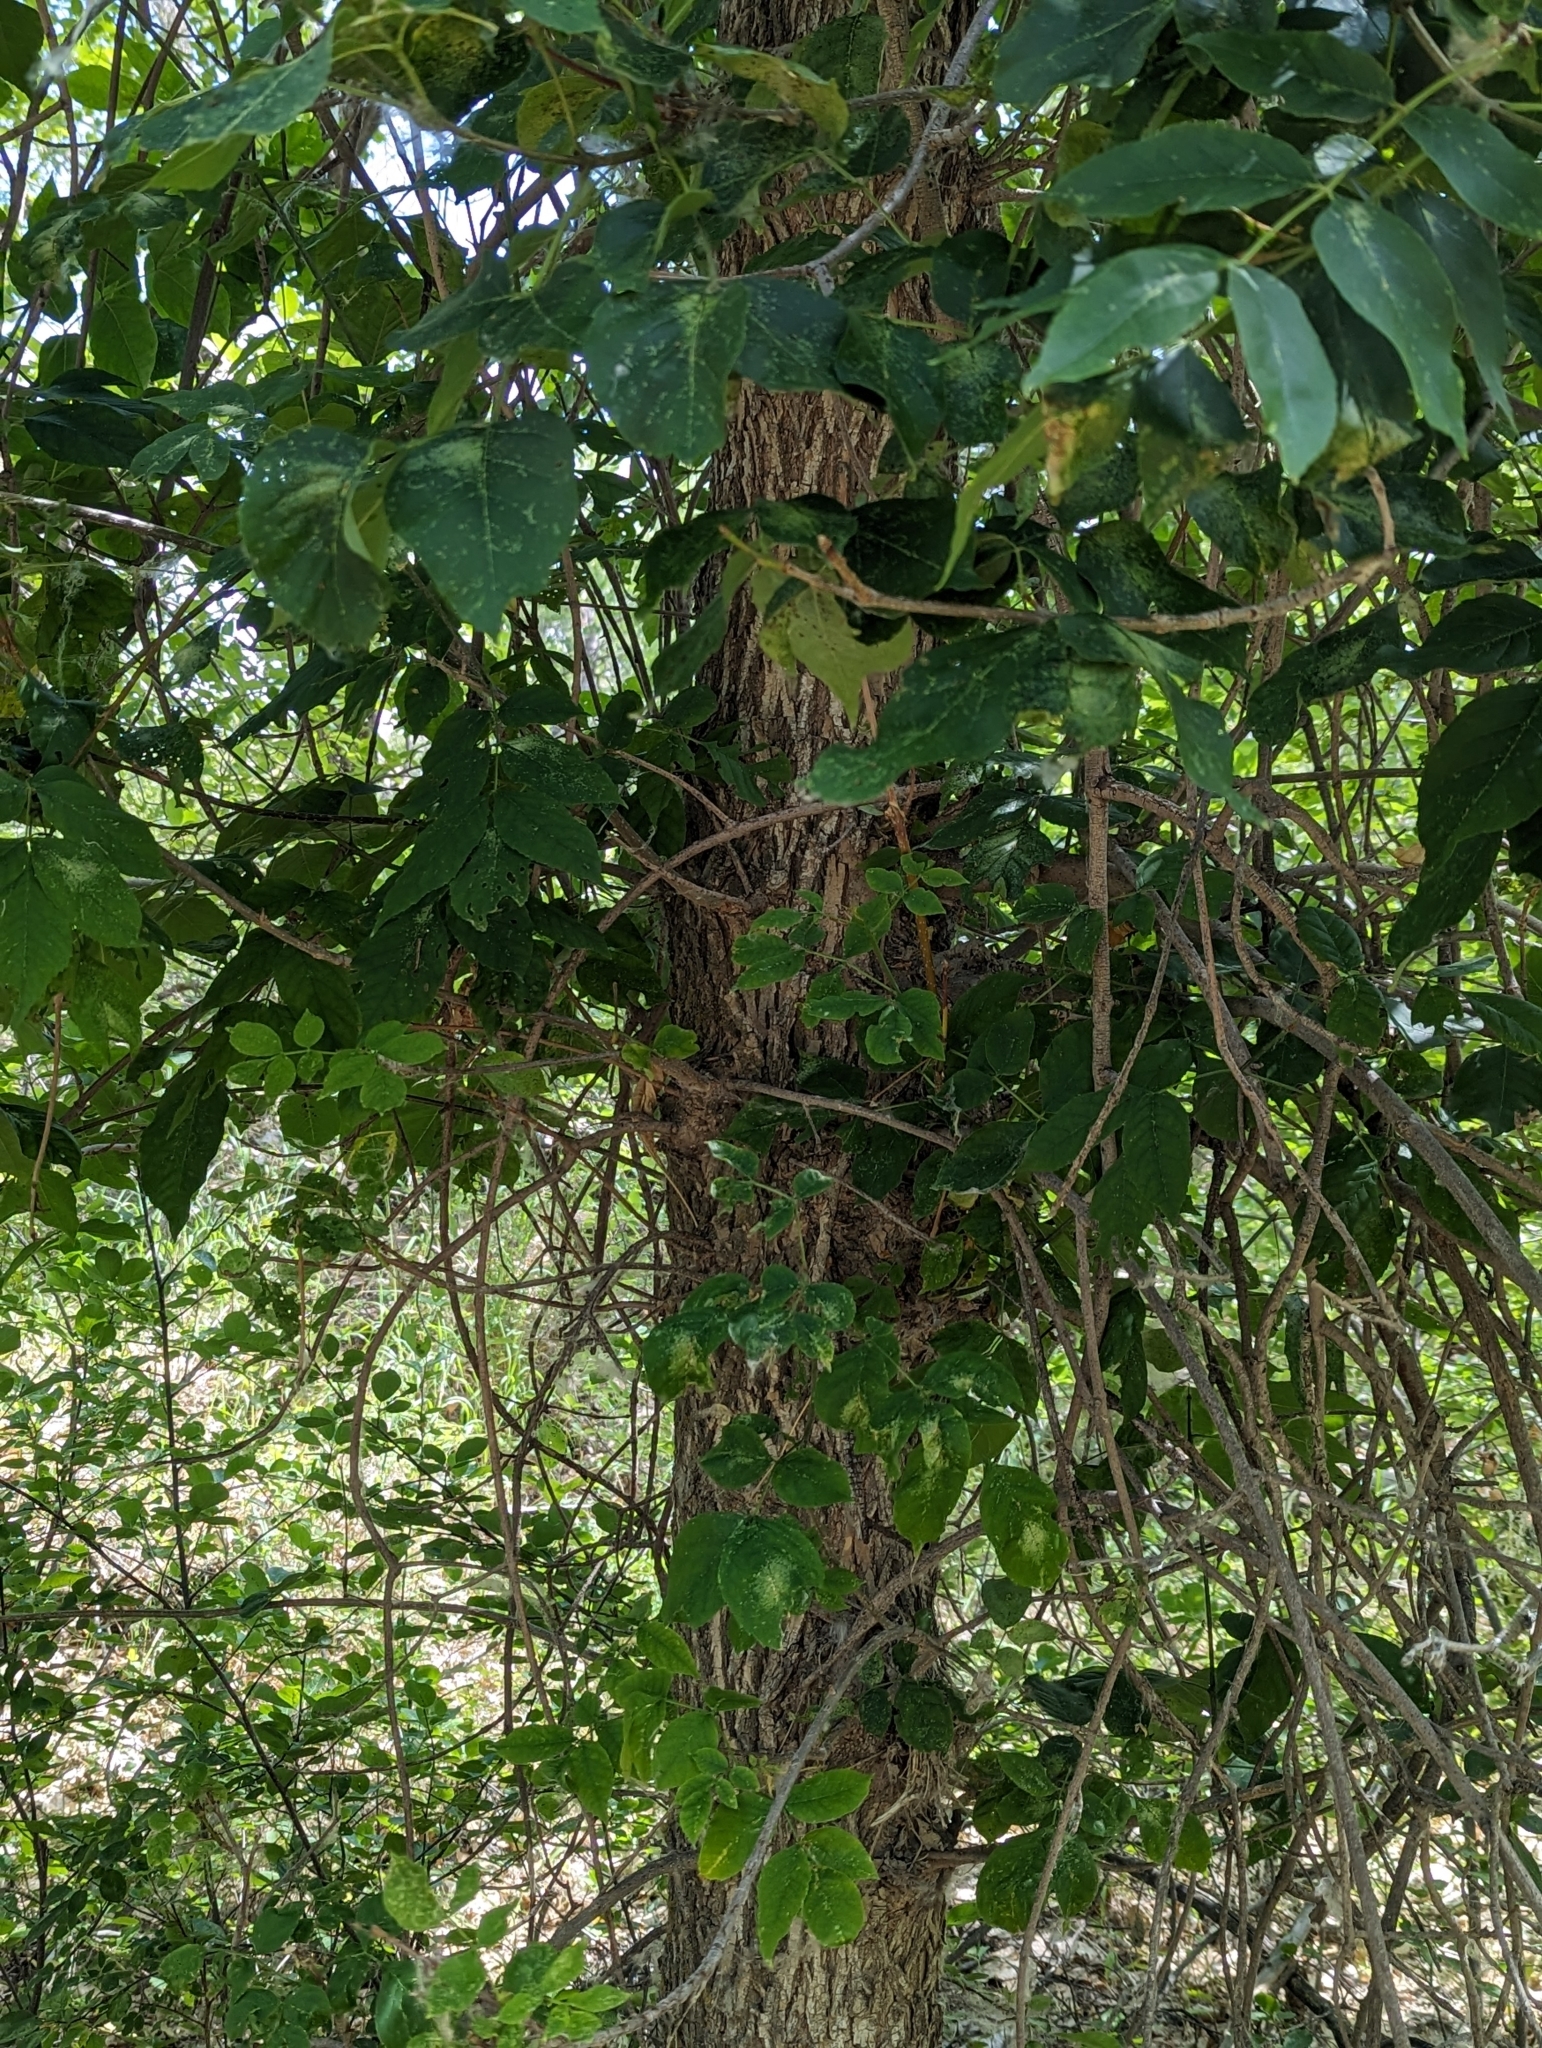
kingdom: Plantae
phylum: Tracheophyta
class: Magnoliopsida
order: Lamiales
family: Oleaceae
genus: Fraxinus
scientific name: Fraxinus pennsylvanica
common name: Green ash
